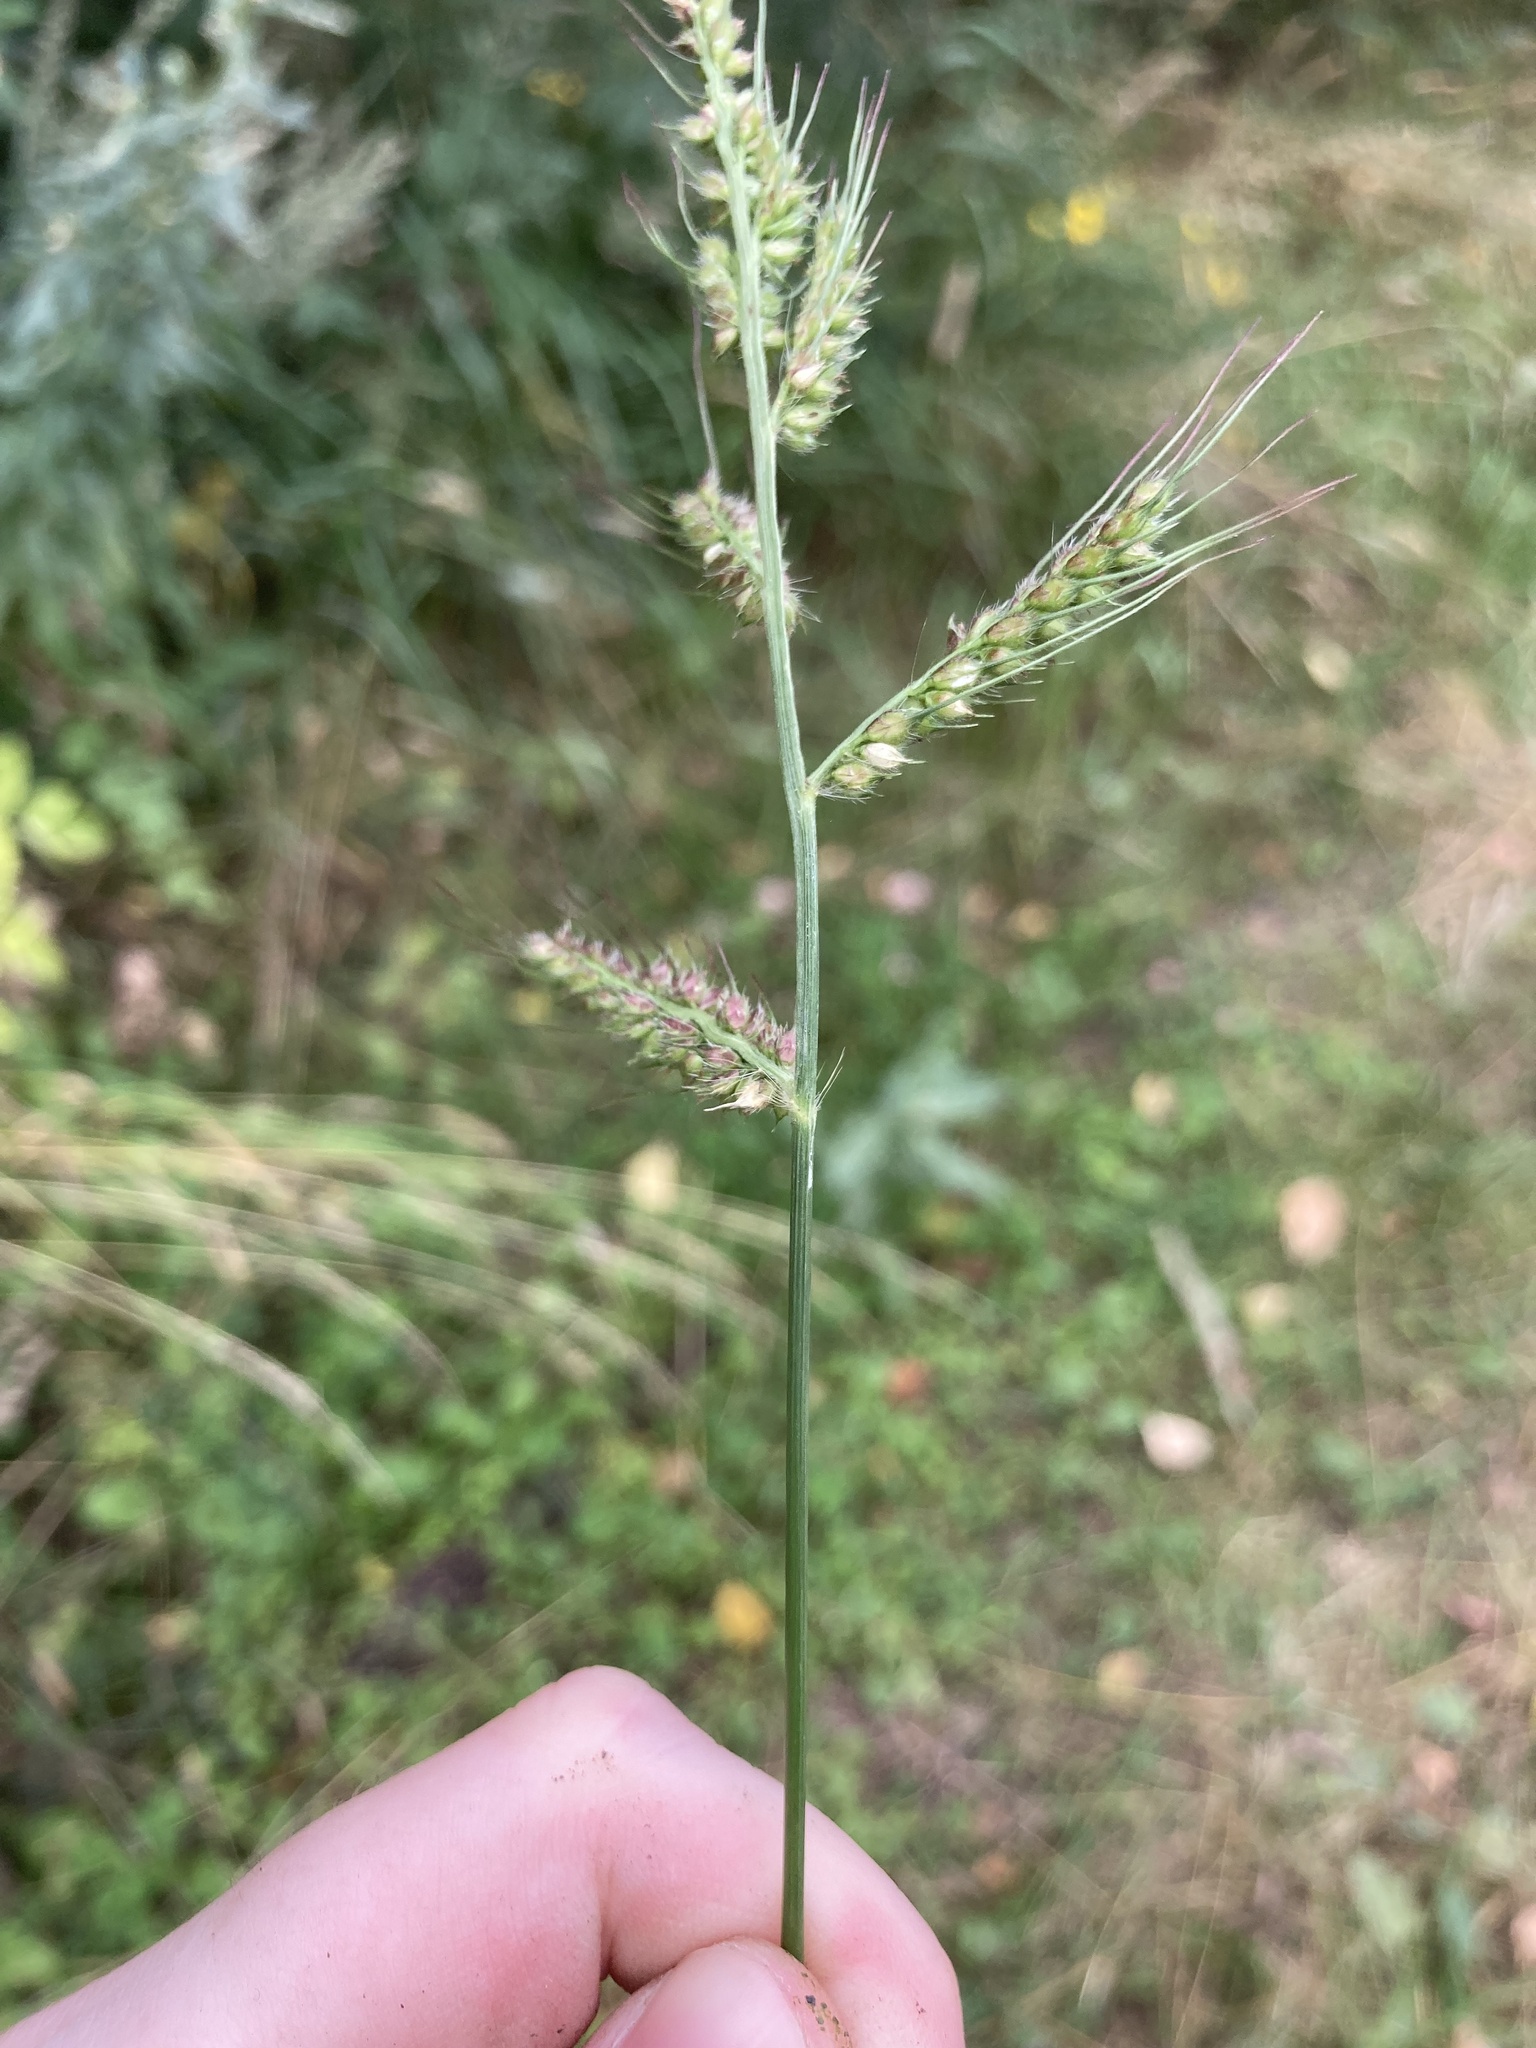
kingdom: Plantae
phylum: Tracheophyta
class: Liliopsida
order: Poales
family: Poaceae
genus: Echinochloa
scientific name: Echinochloa crus-galli
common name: Cockspur
